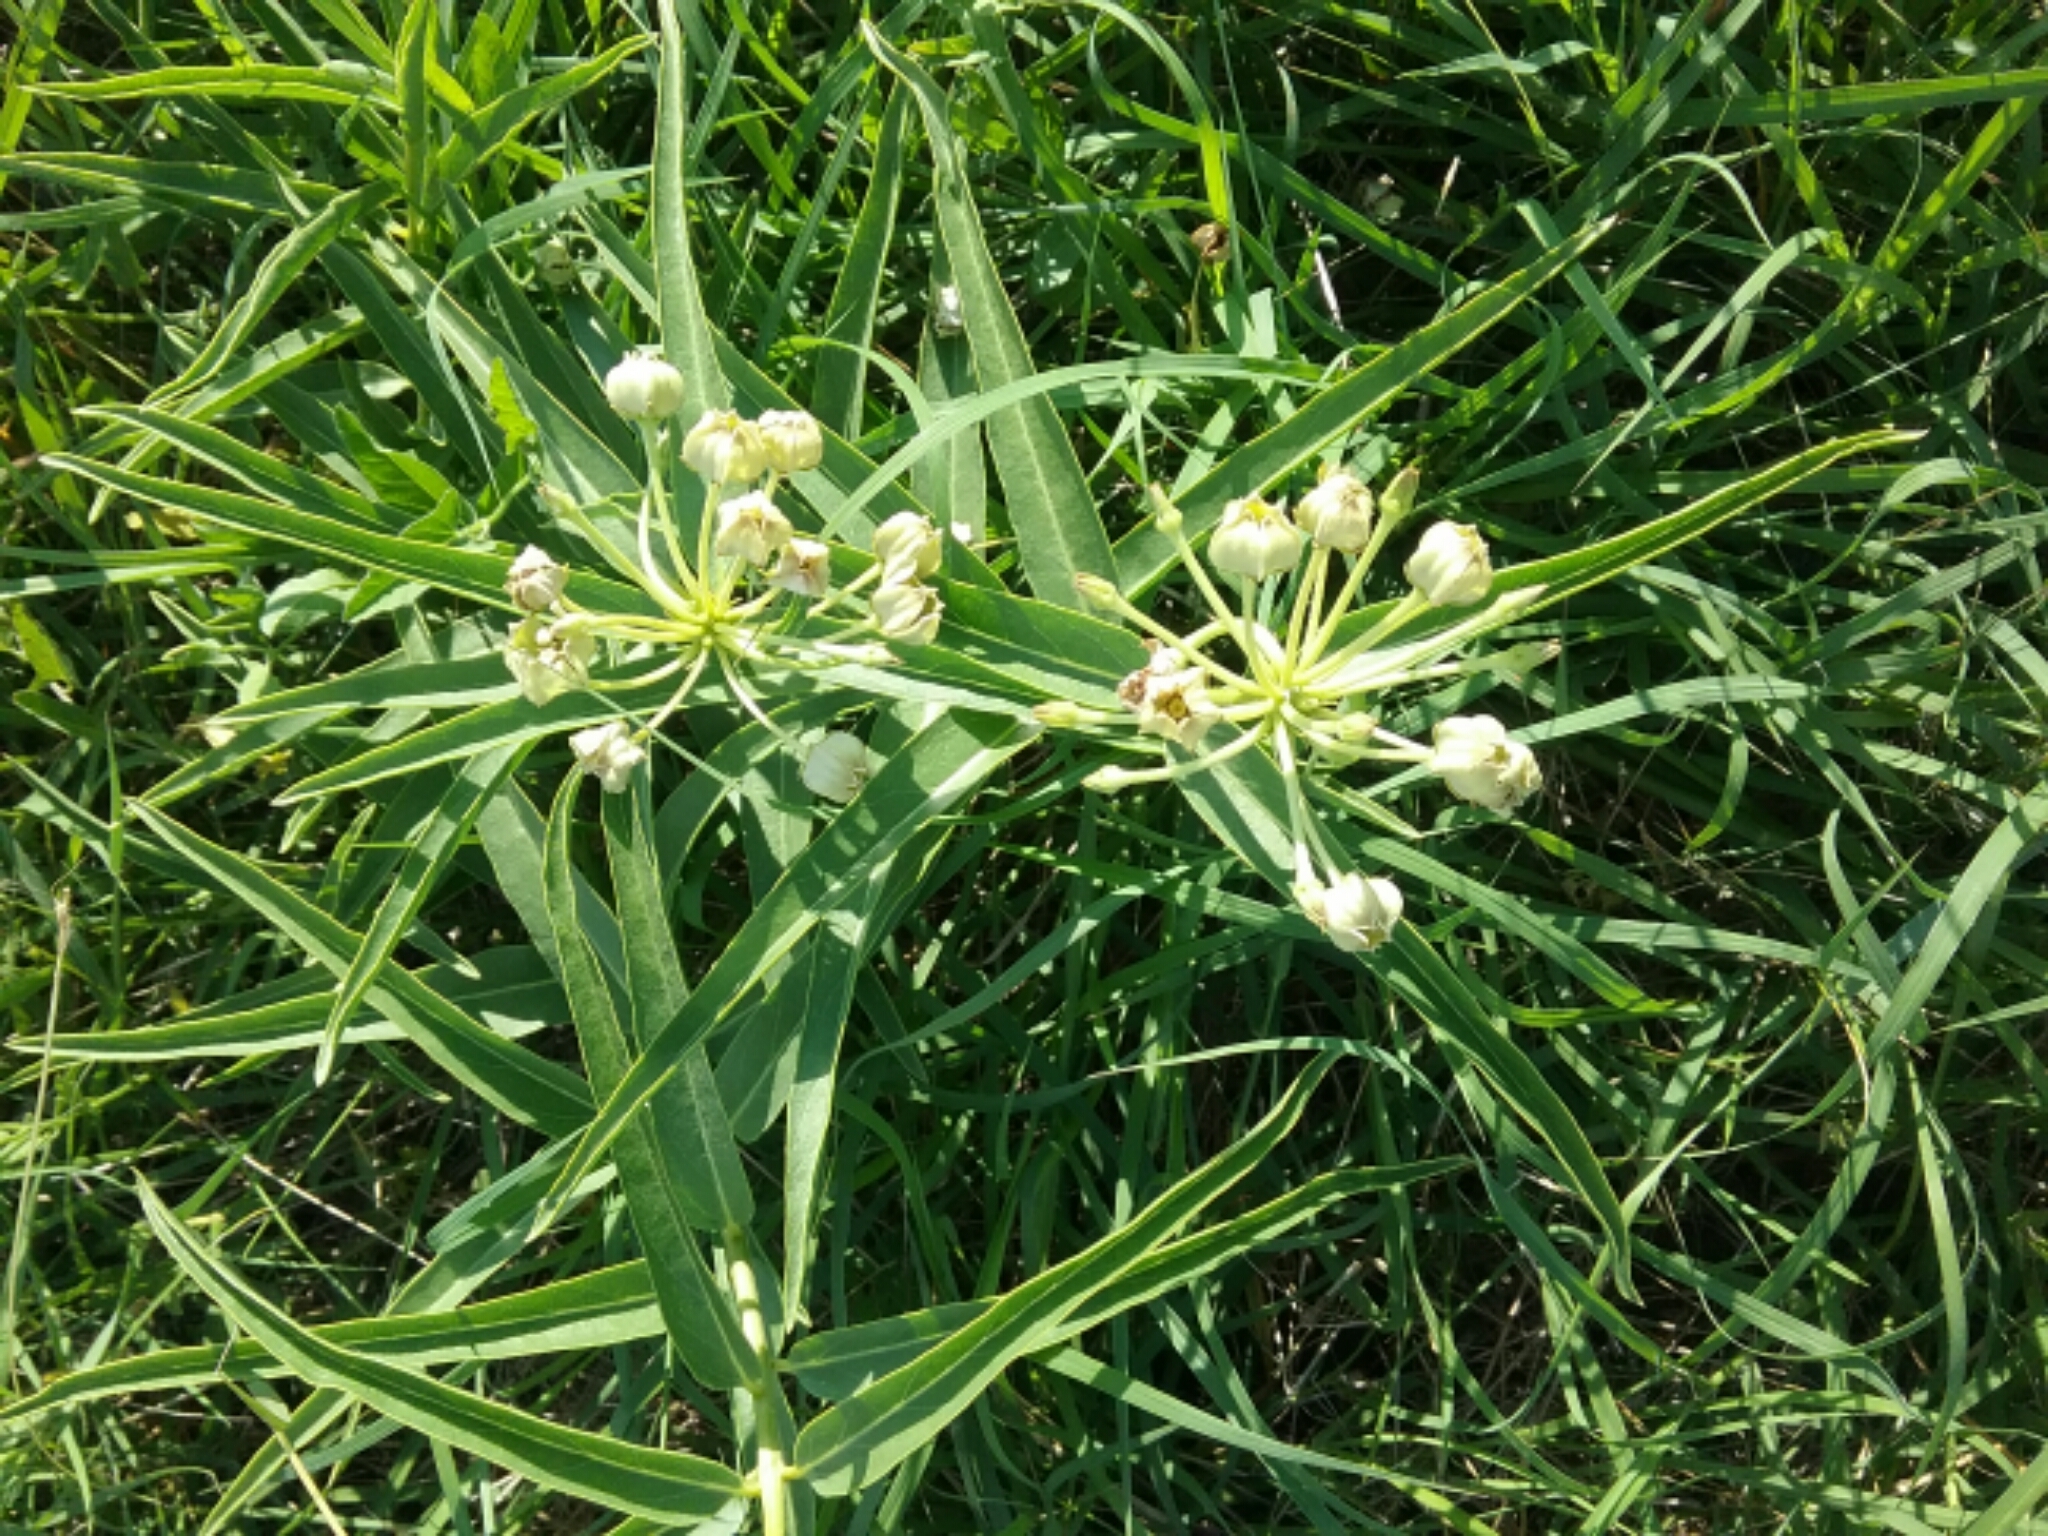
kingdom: Plantae
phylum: Tracheophyta
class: Magnoliopsida
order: Gentianales
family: Apocynaceae
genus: Asclepias
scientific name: Asclepias asperula
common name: Antelope horns
